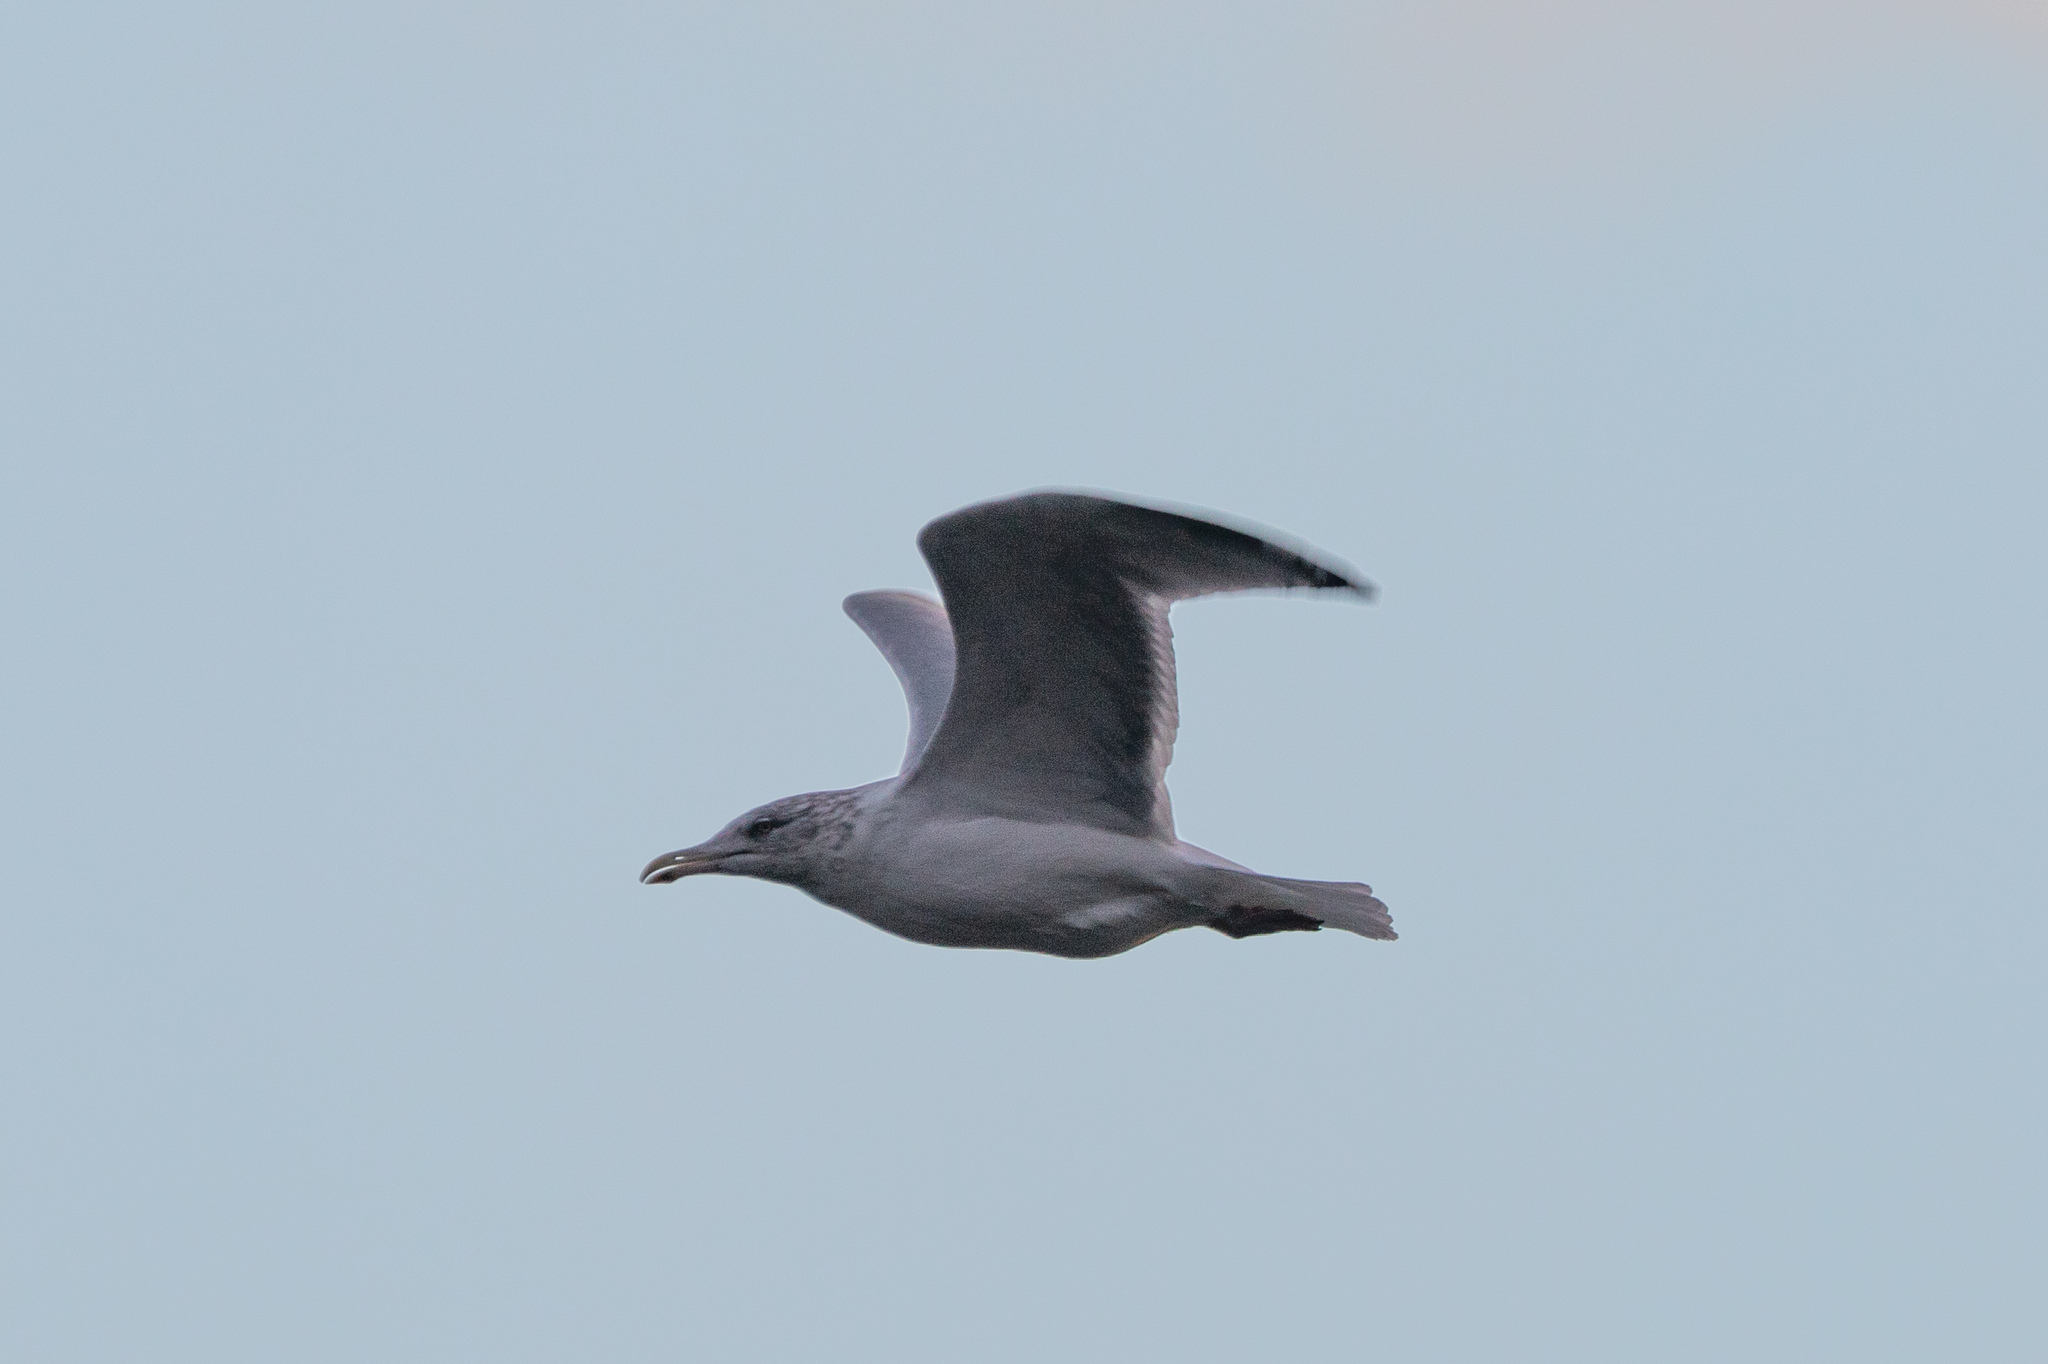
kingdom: Animalia
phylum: Chordata
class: Aves
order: Charadriiformes
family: Laridae
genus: Larus
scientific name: Larus argentatus
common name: Herring gull
